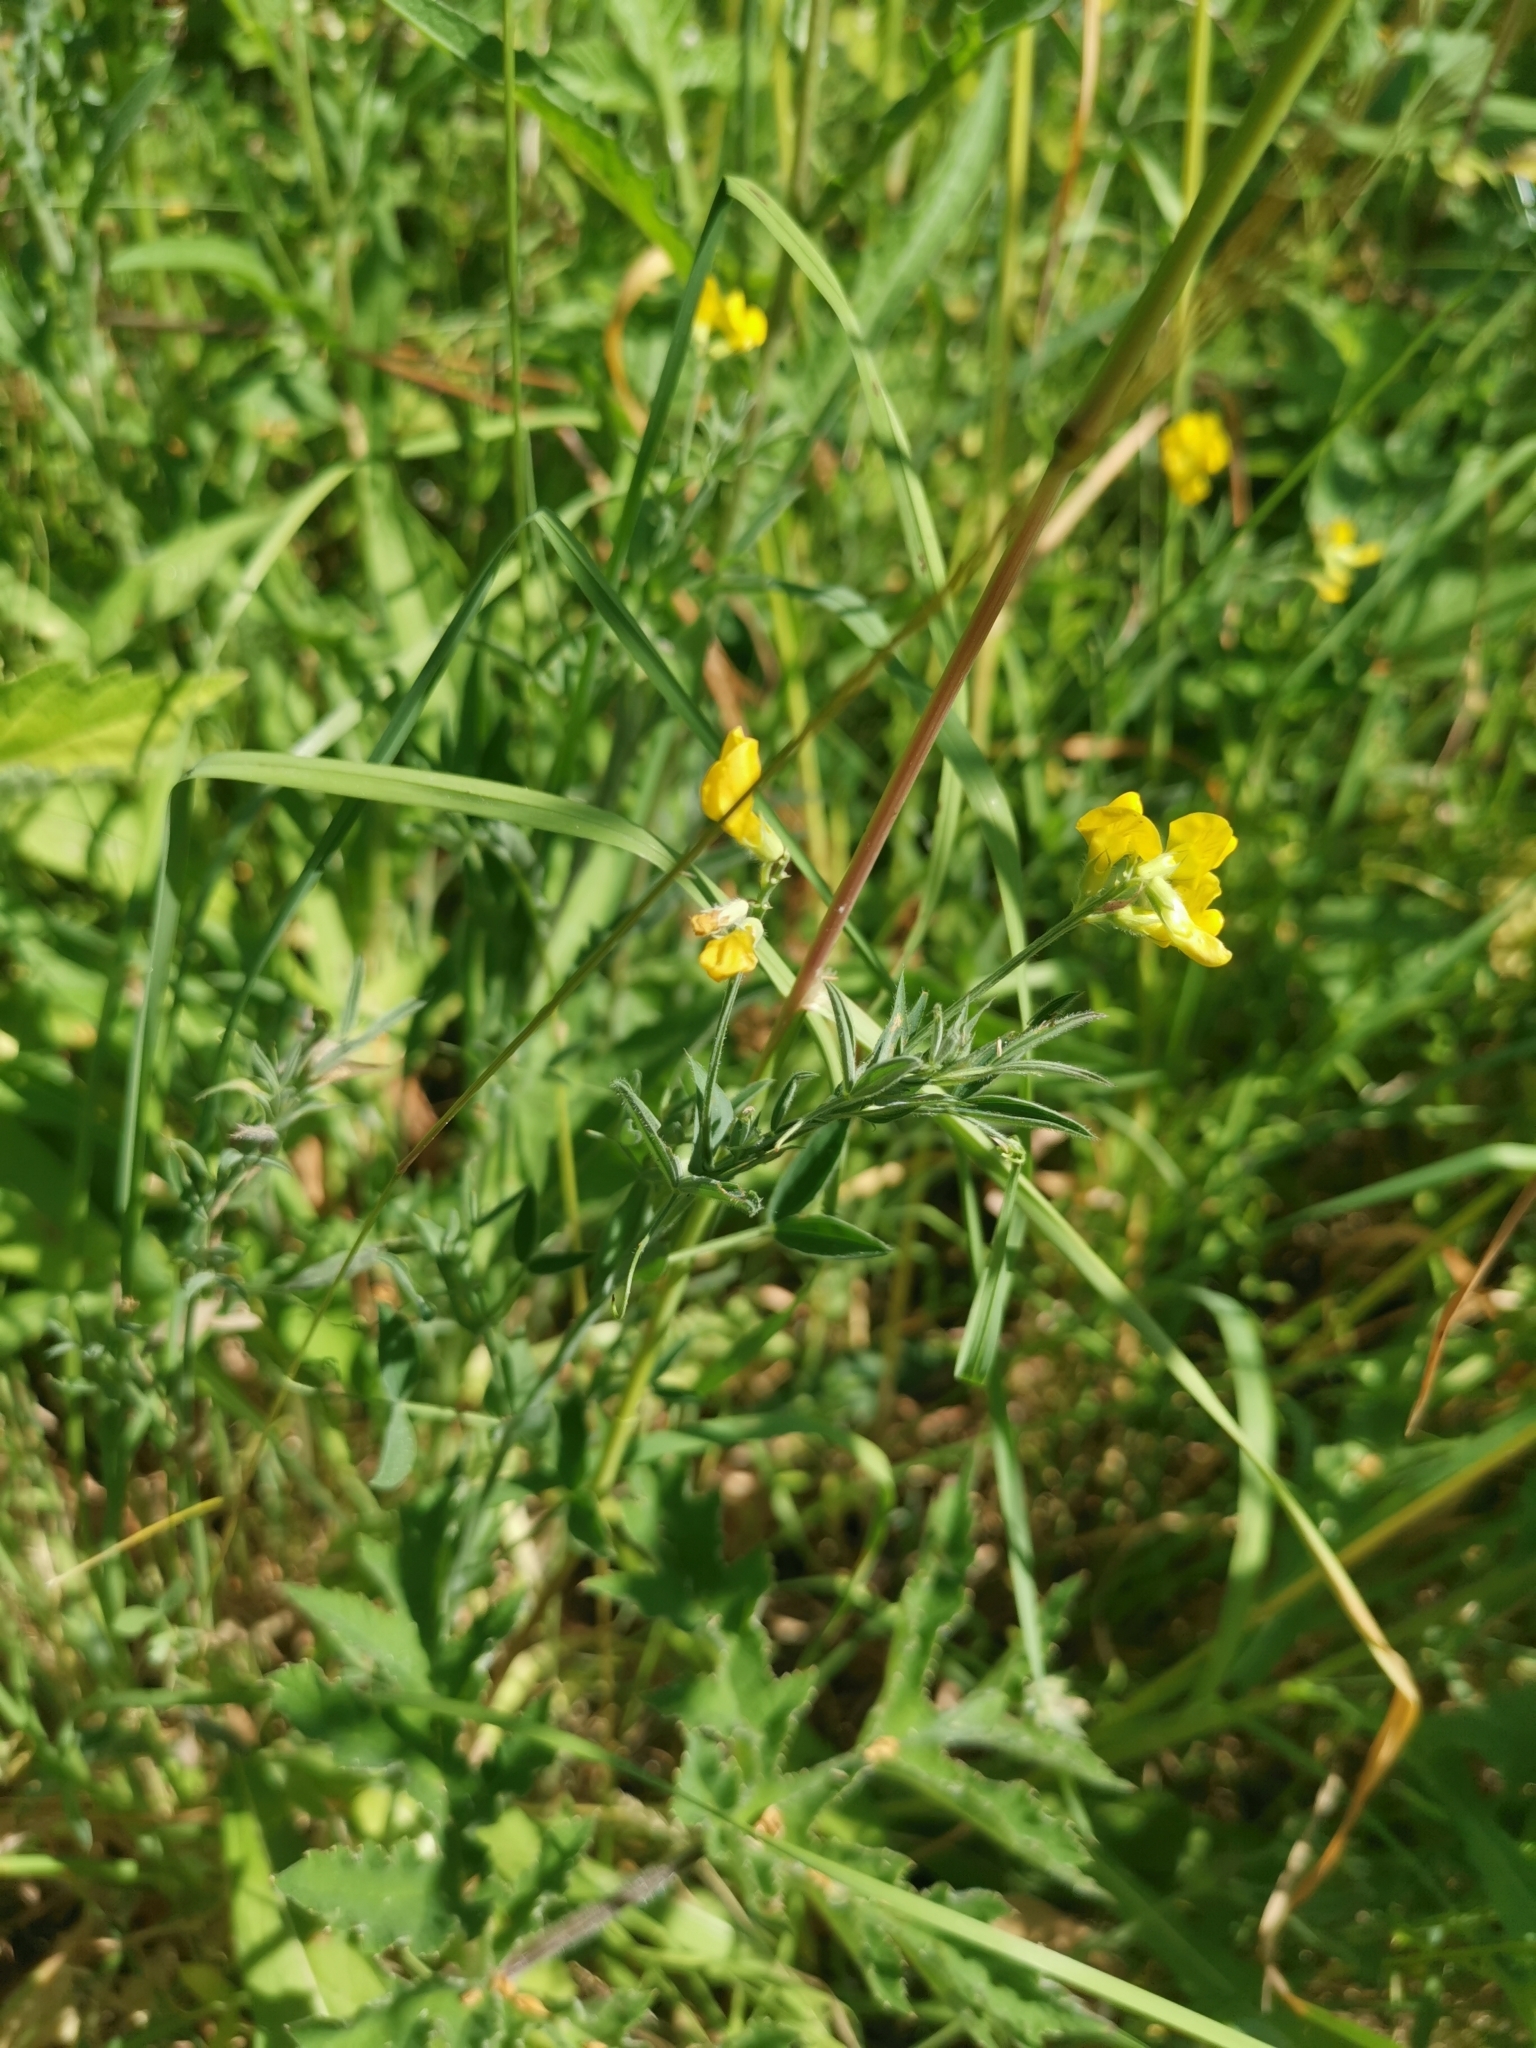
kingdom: Plantae
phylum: Tracheophyta
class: Magnoliopsida
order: Fabales
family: Fabaceae
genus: Lathyrus
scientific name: Lathyrus pratensis
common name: Meadow vetchling
